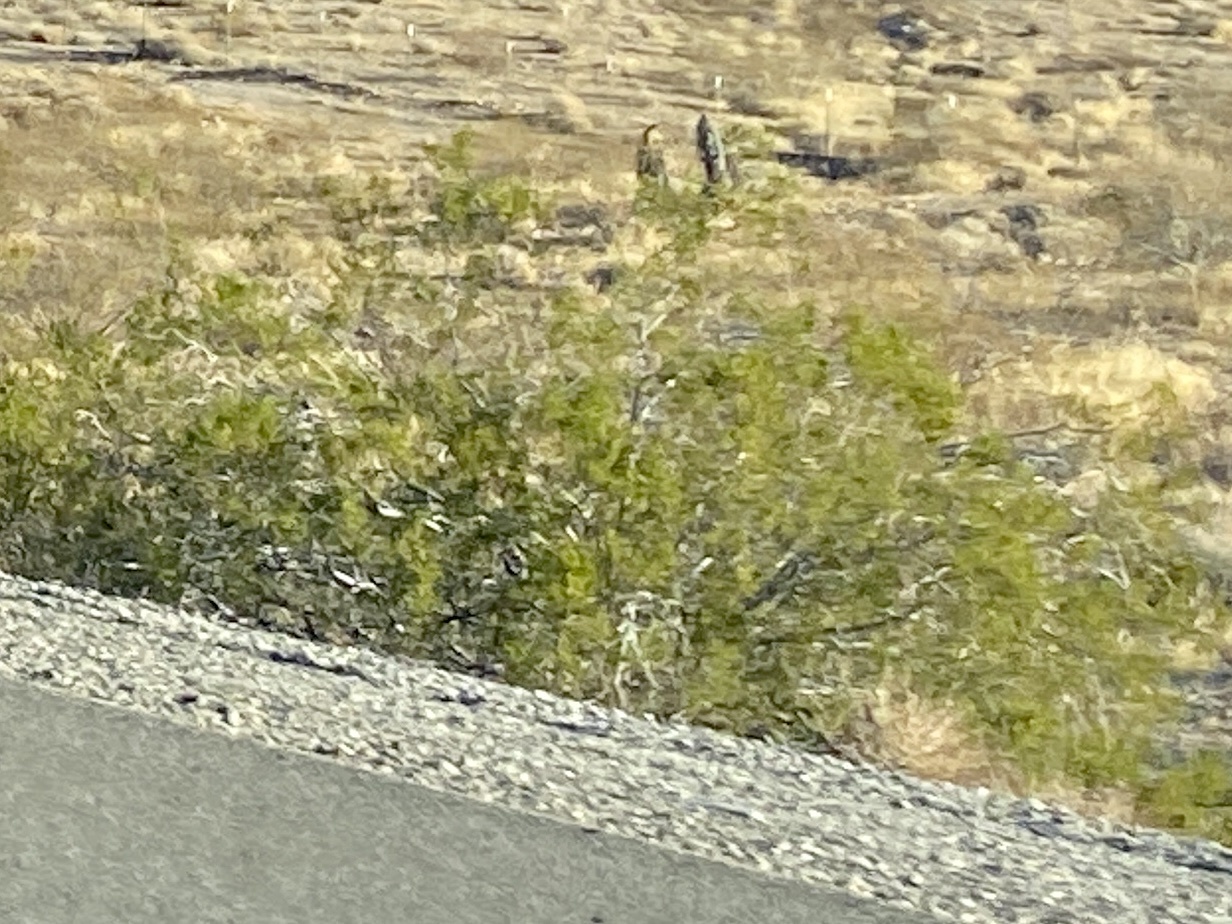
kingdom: Plantae
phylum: Tracheophyta
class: Magnoliopsida
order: Zygophyllales
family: Zygophyllaceae
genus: Larrea
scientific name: Larrea tridentata
